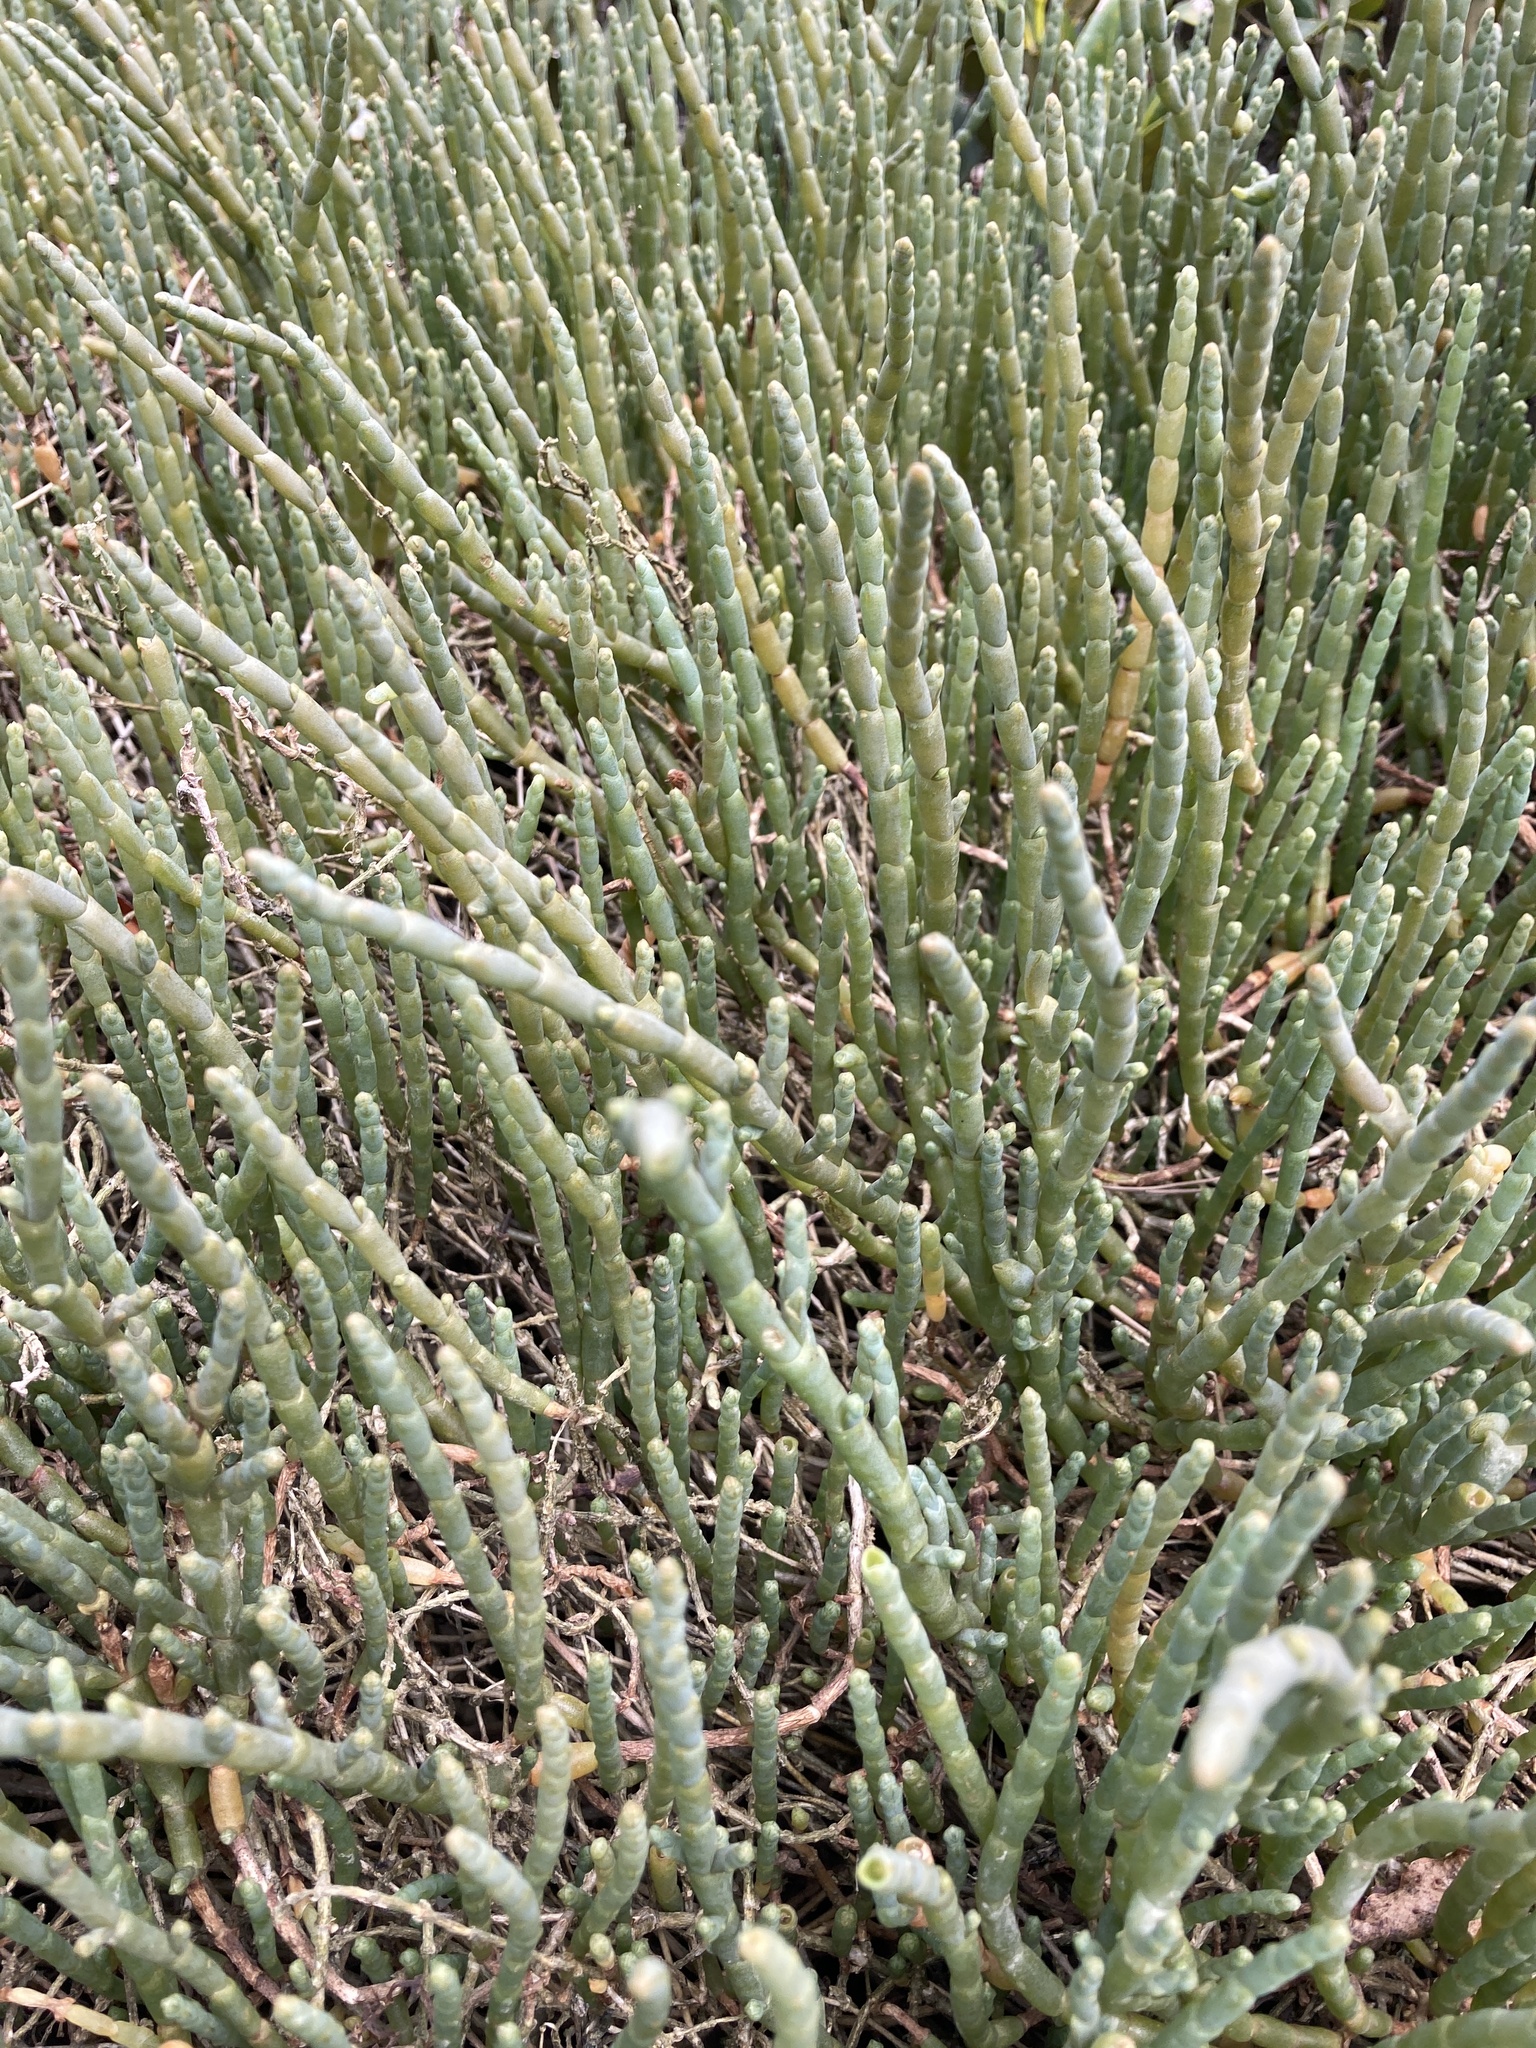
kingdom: Plantae
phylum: Tracheophyta
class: Magnoliopsida
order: Caryophyllales
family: Amaranthaceae
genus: Salicornia
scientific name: Salicornia quinqueflora
